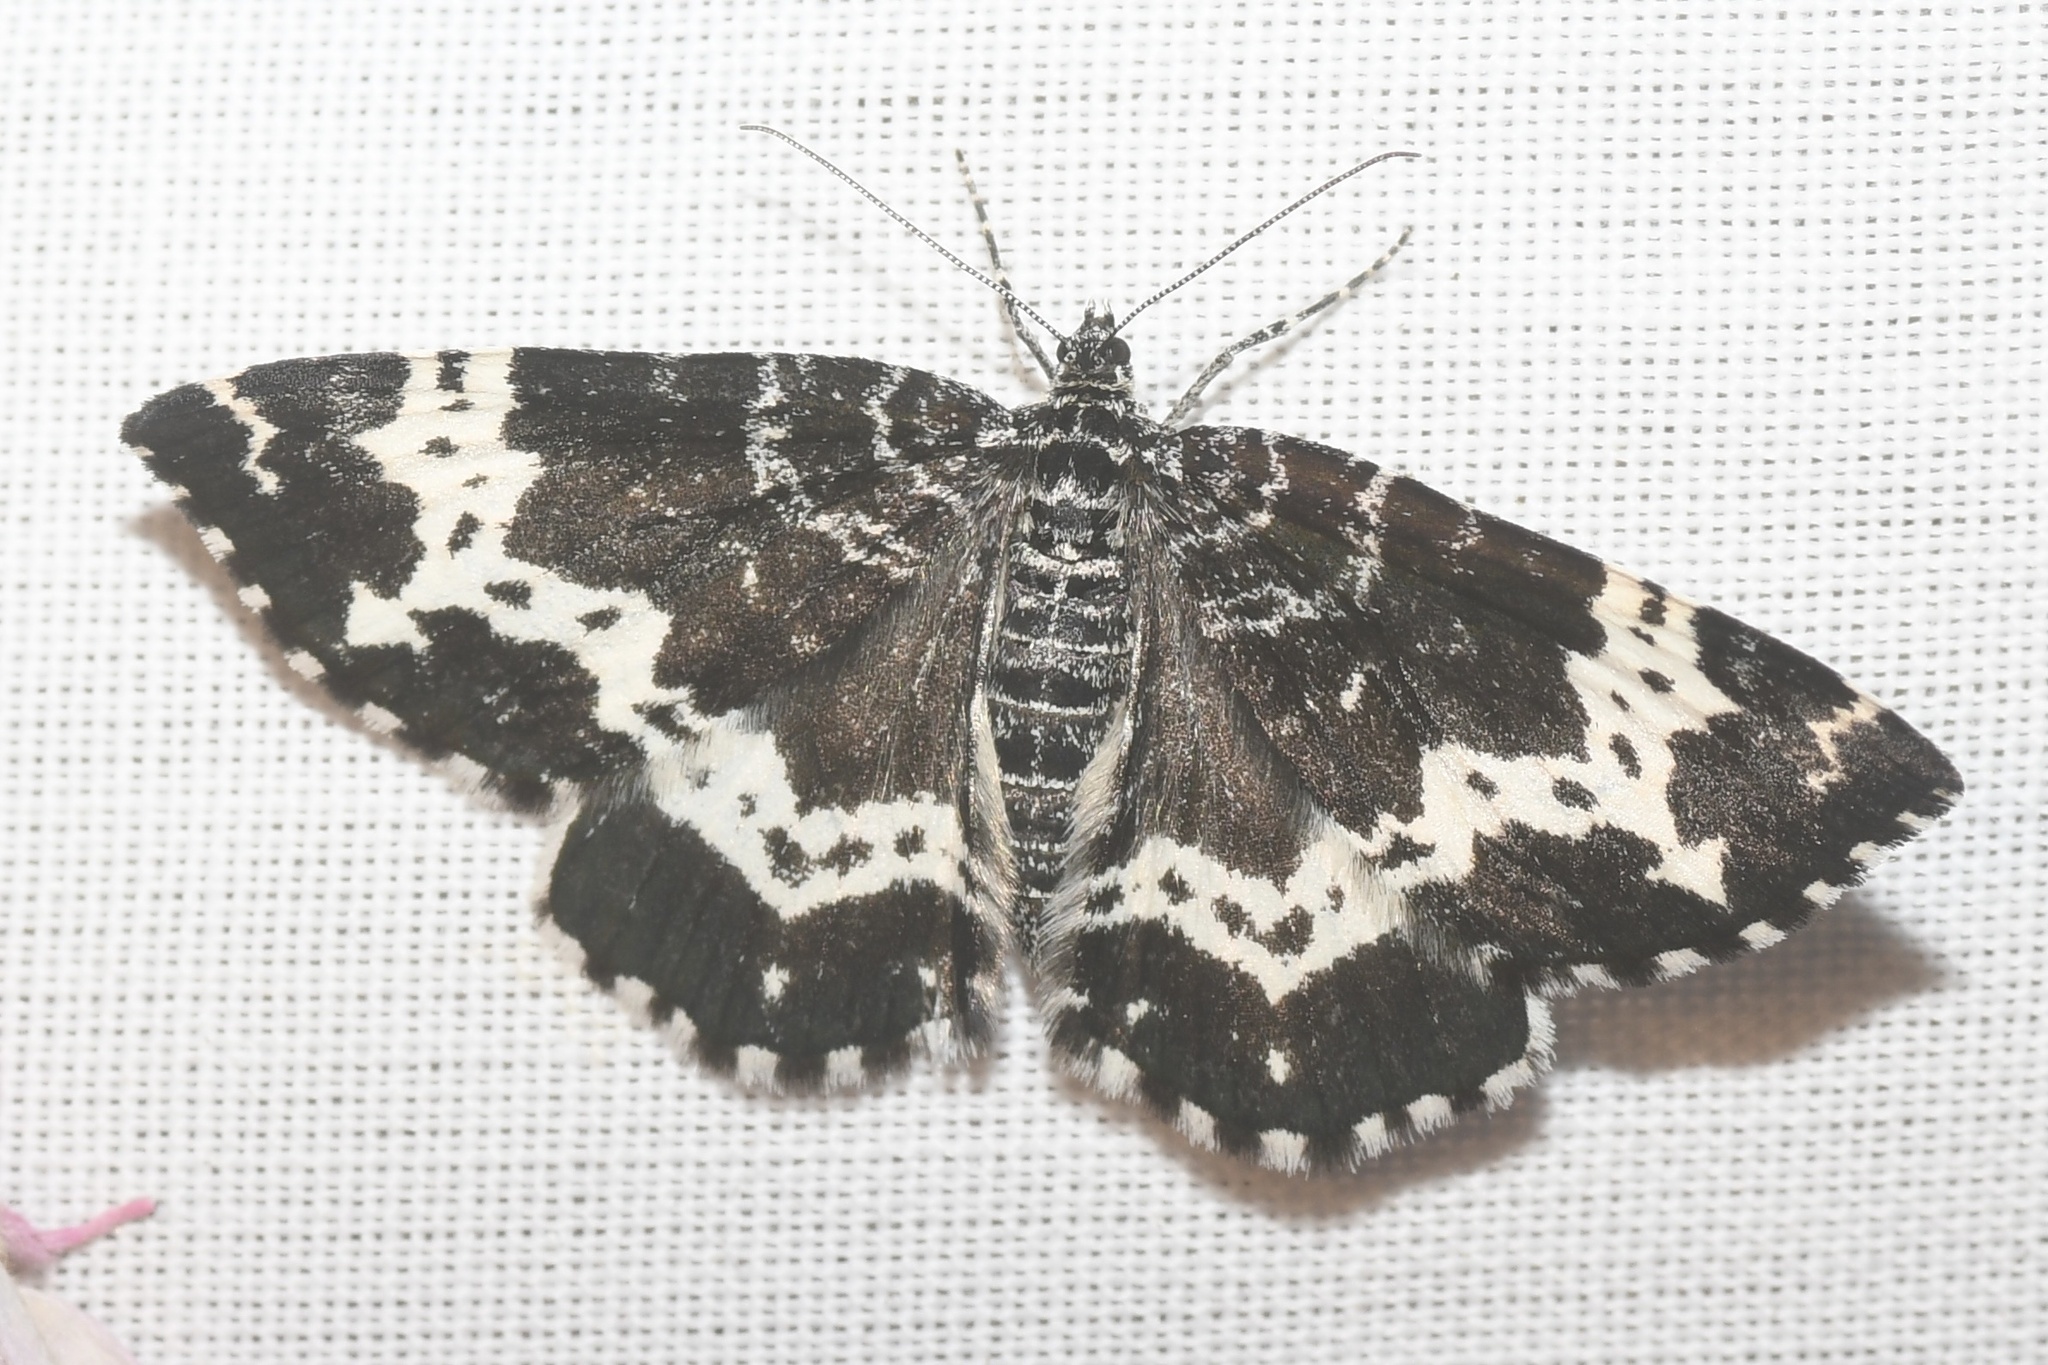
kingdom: Animalia
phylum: Arthropoda
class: Insecta
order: Lepidoptera
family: Geometridae
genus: Rheumaptera
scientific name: Rheumaptera
